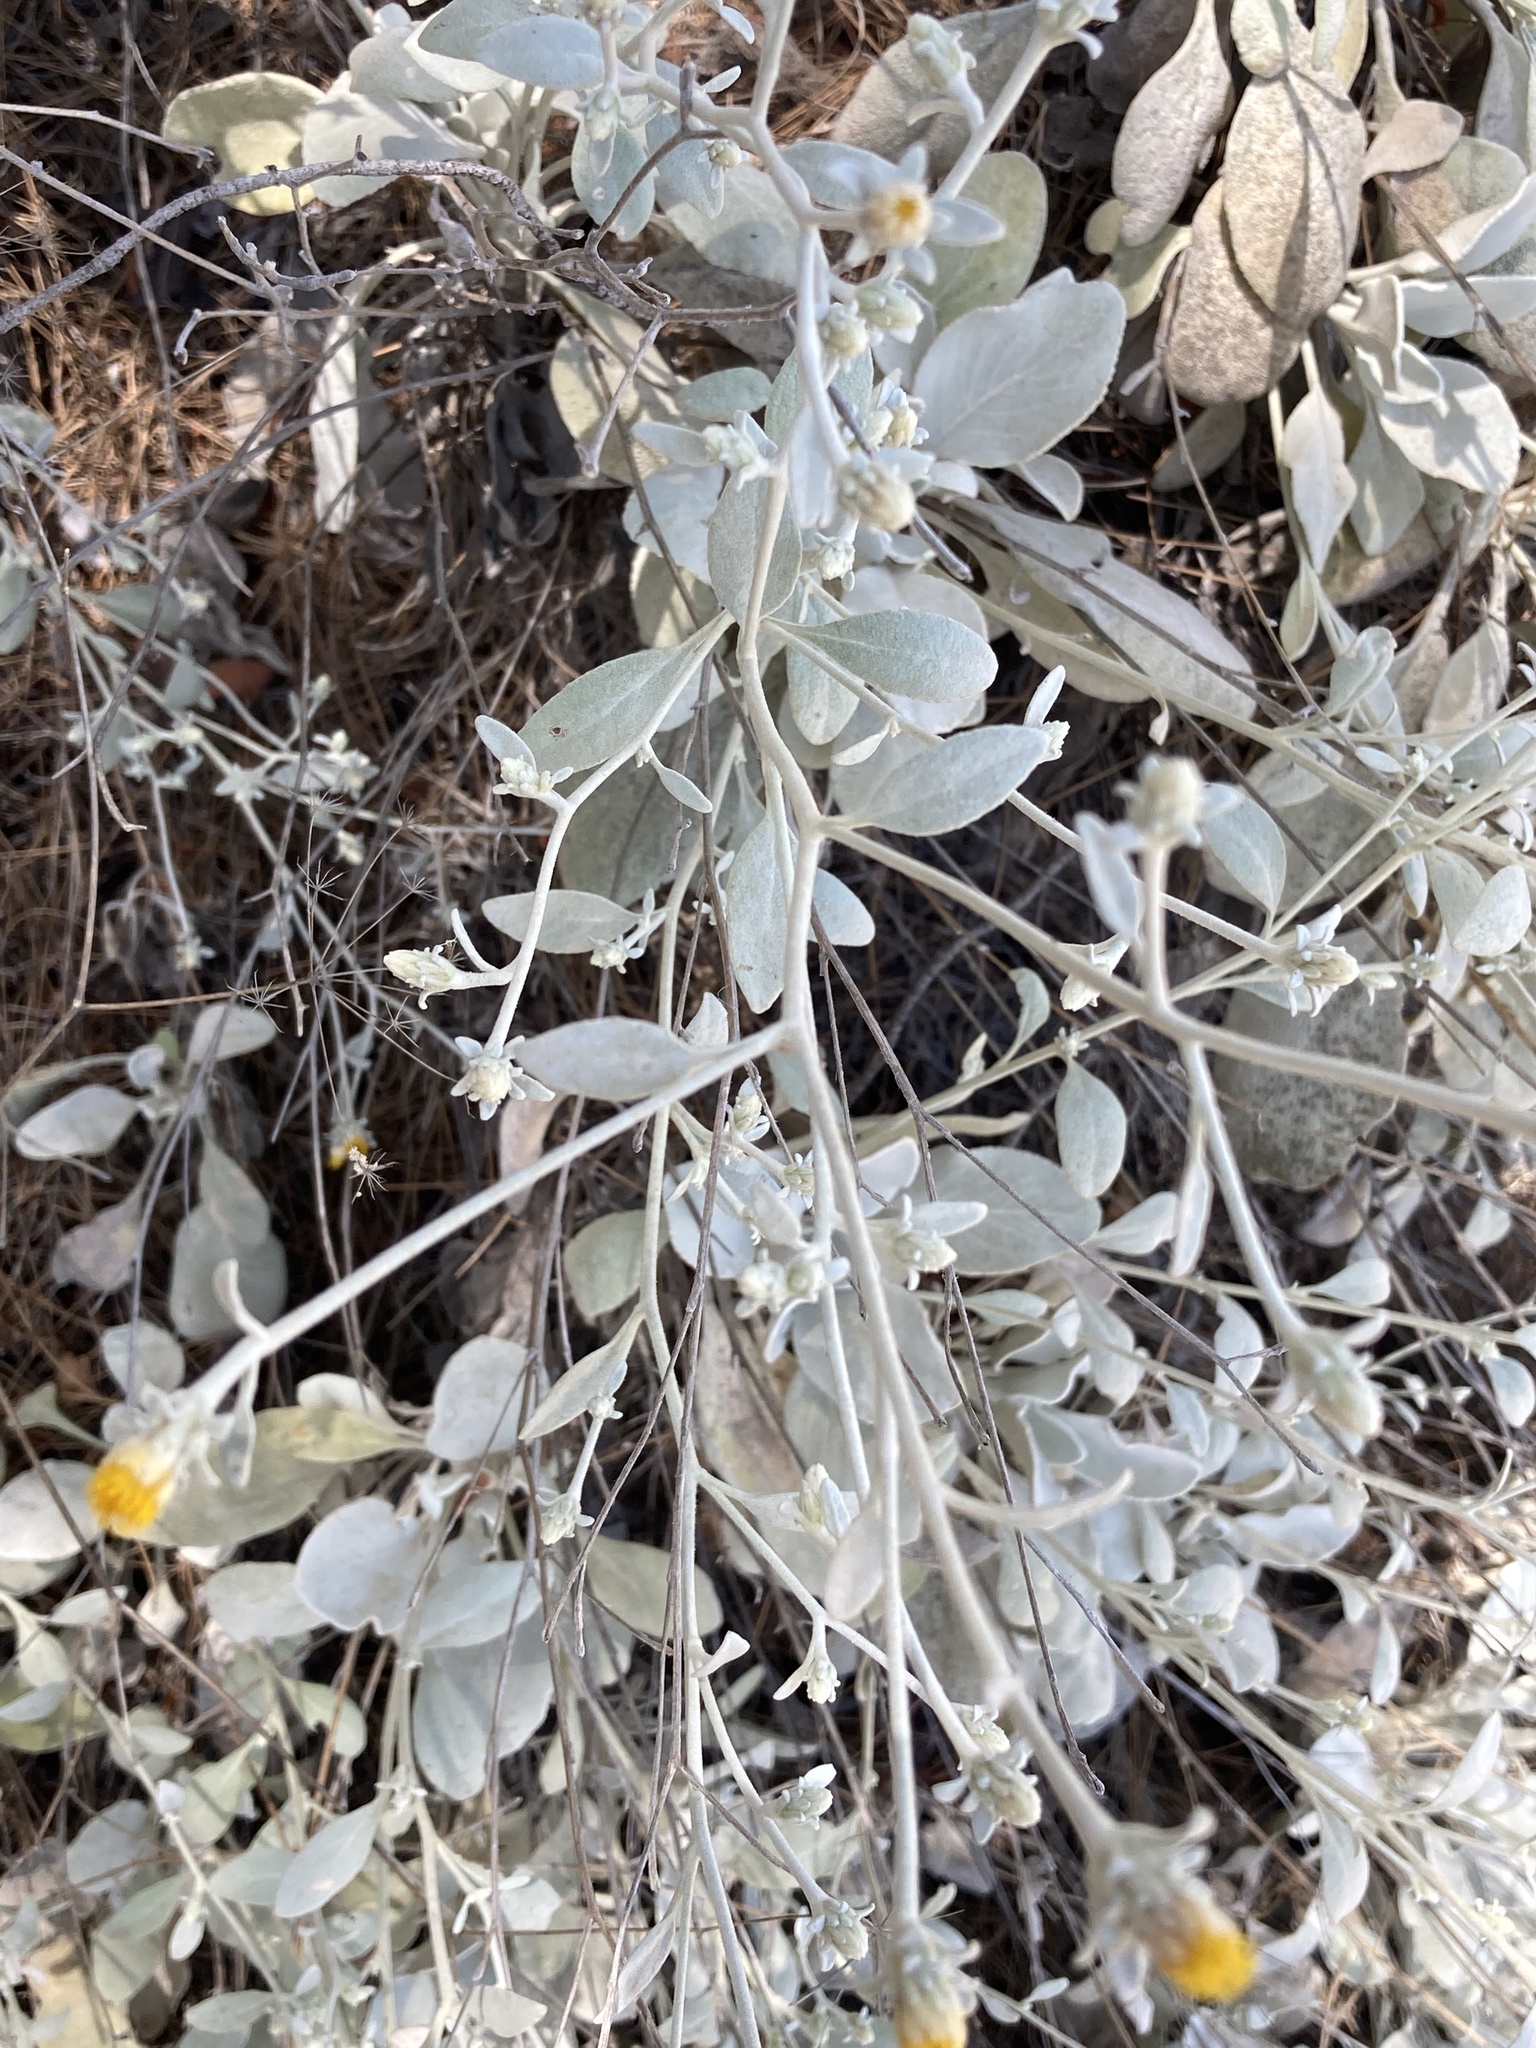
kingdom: Plantae
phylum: Tracheophyta
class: Magnoliopsida
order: Asterales
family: Asteraceae
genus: Pentanema
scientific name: Pentanema verbascifolium
